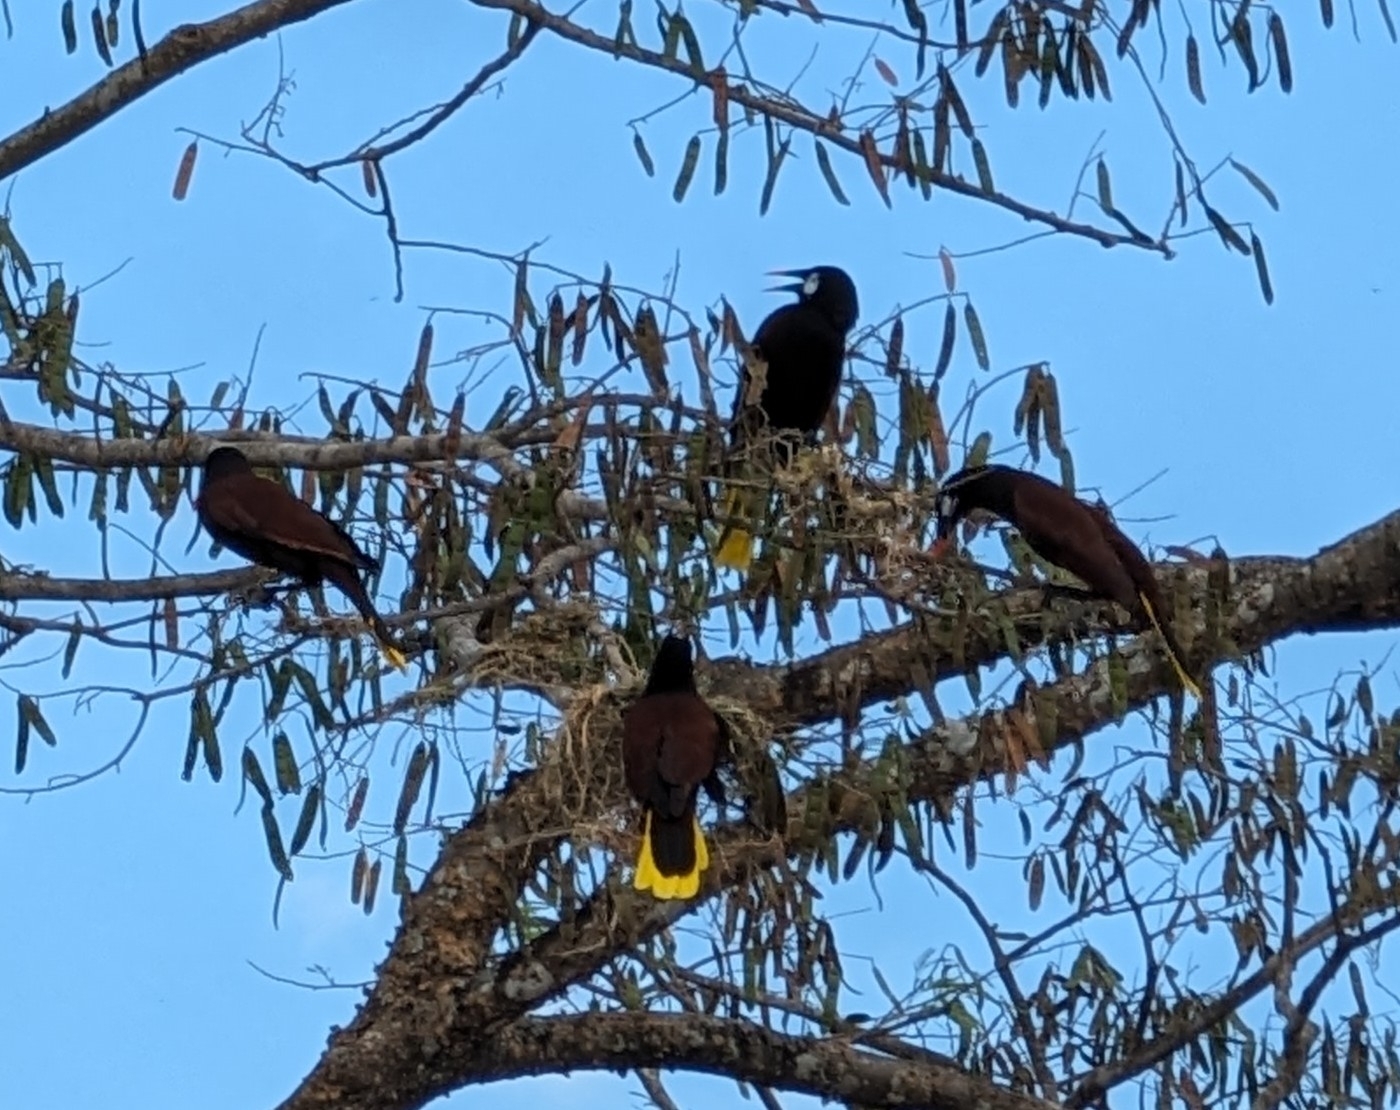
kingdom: Animalia
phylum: Chordata
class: Aves
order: Passeriformes
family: Icteridae
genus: Psarocolius
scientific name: Psarocolius montezuma
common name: Montezuma oropendola
